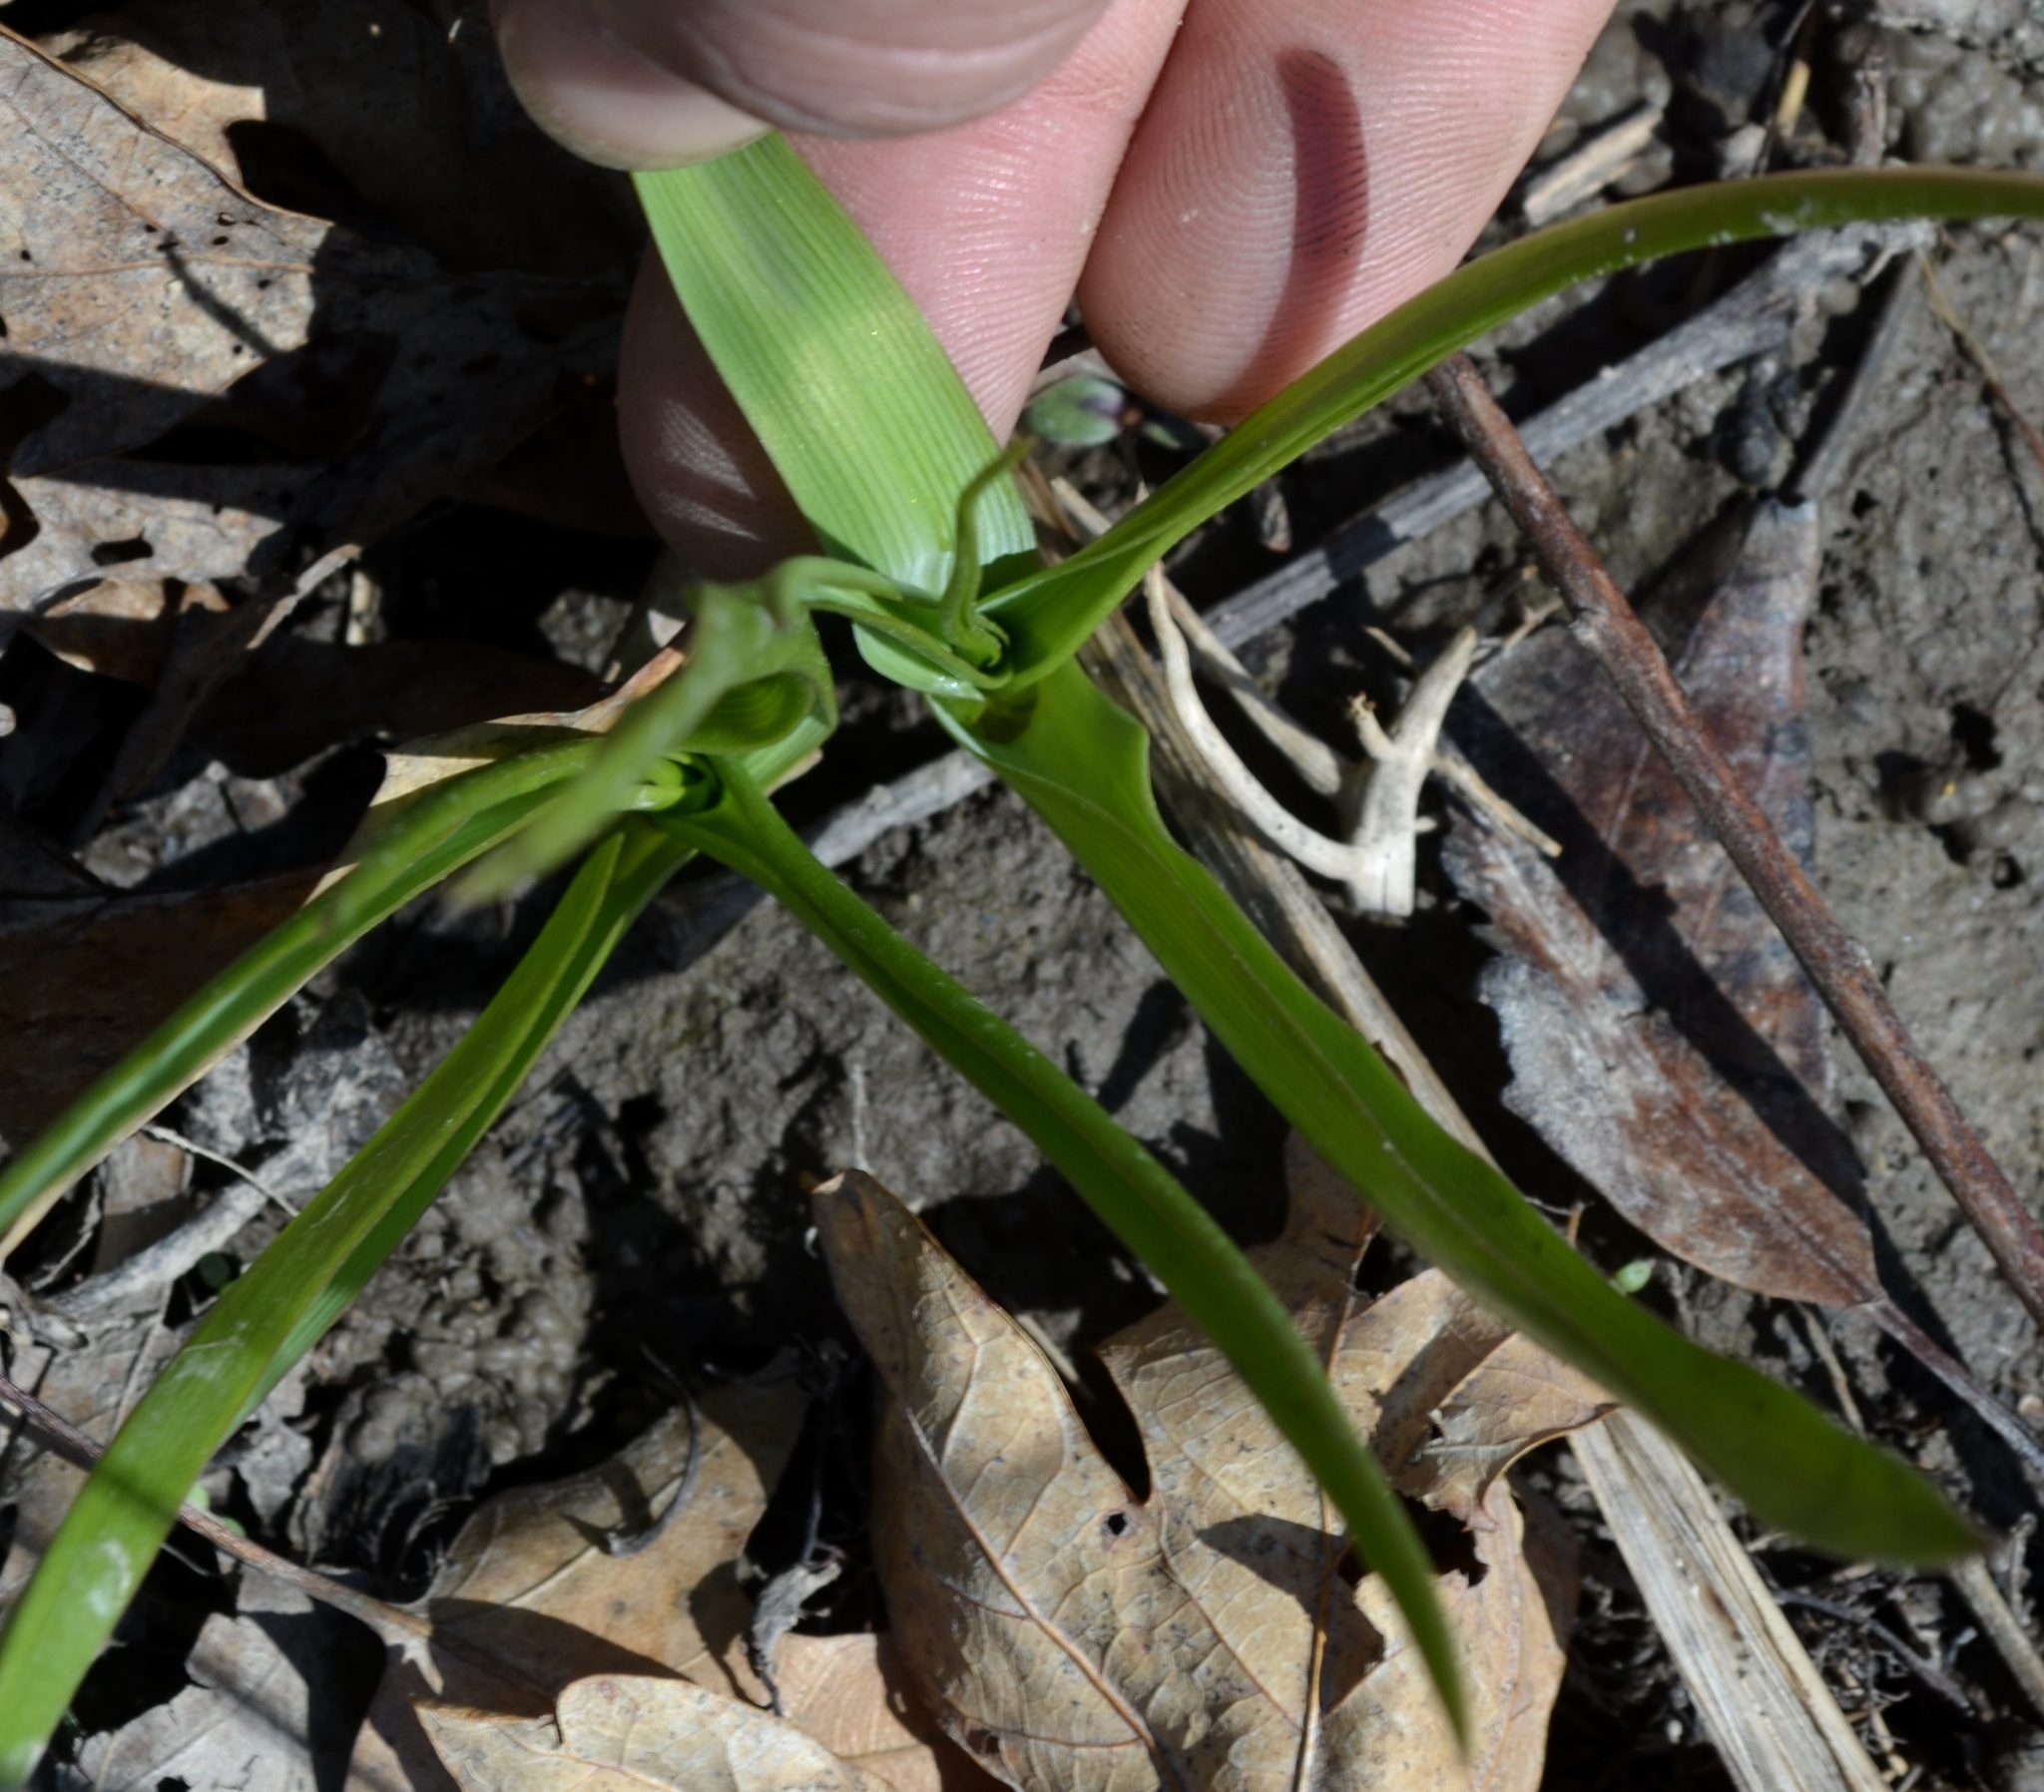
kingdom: Plantae
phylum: Tracheophyta
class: Liliopsida
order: Asparagales
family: Asparagaceae
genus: Camassia
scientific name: Camassia scilloides
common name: Wild hyacinth
